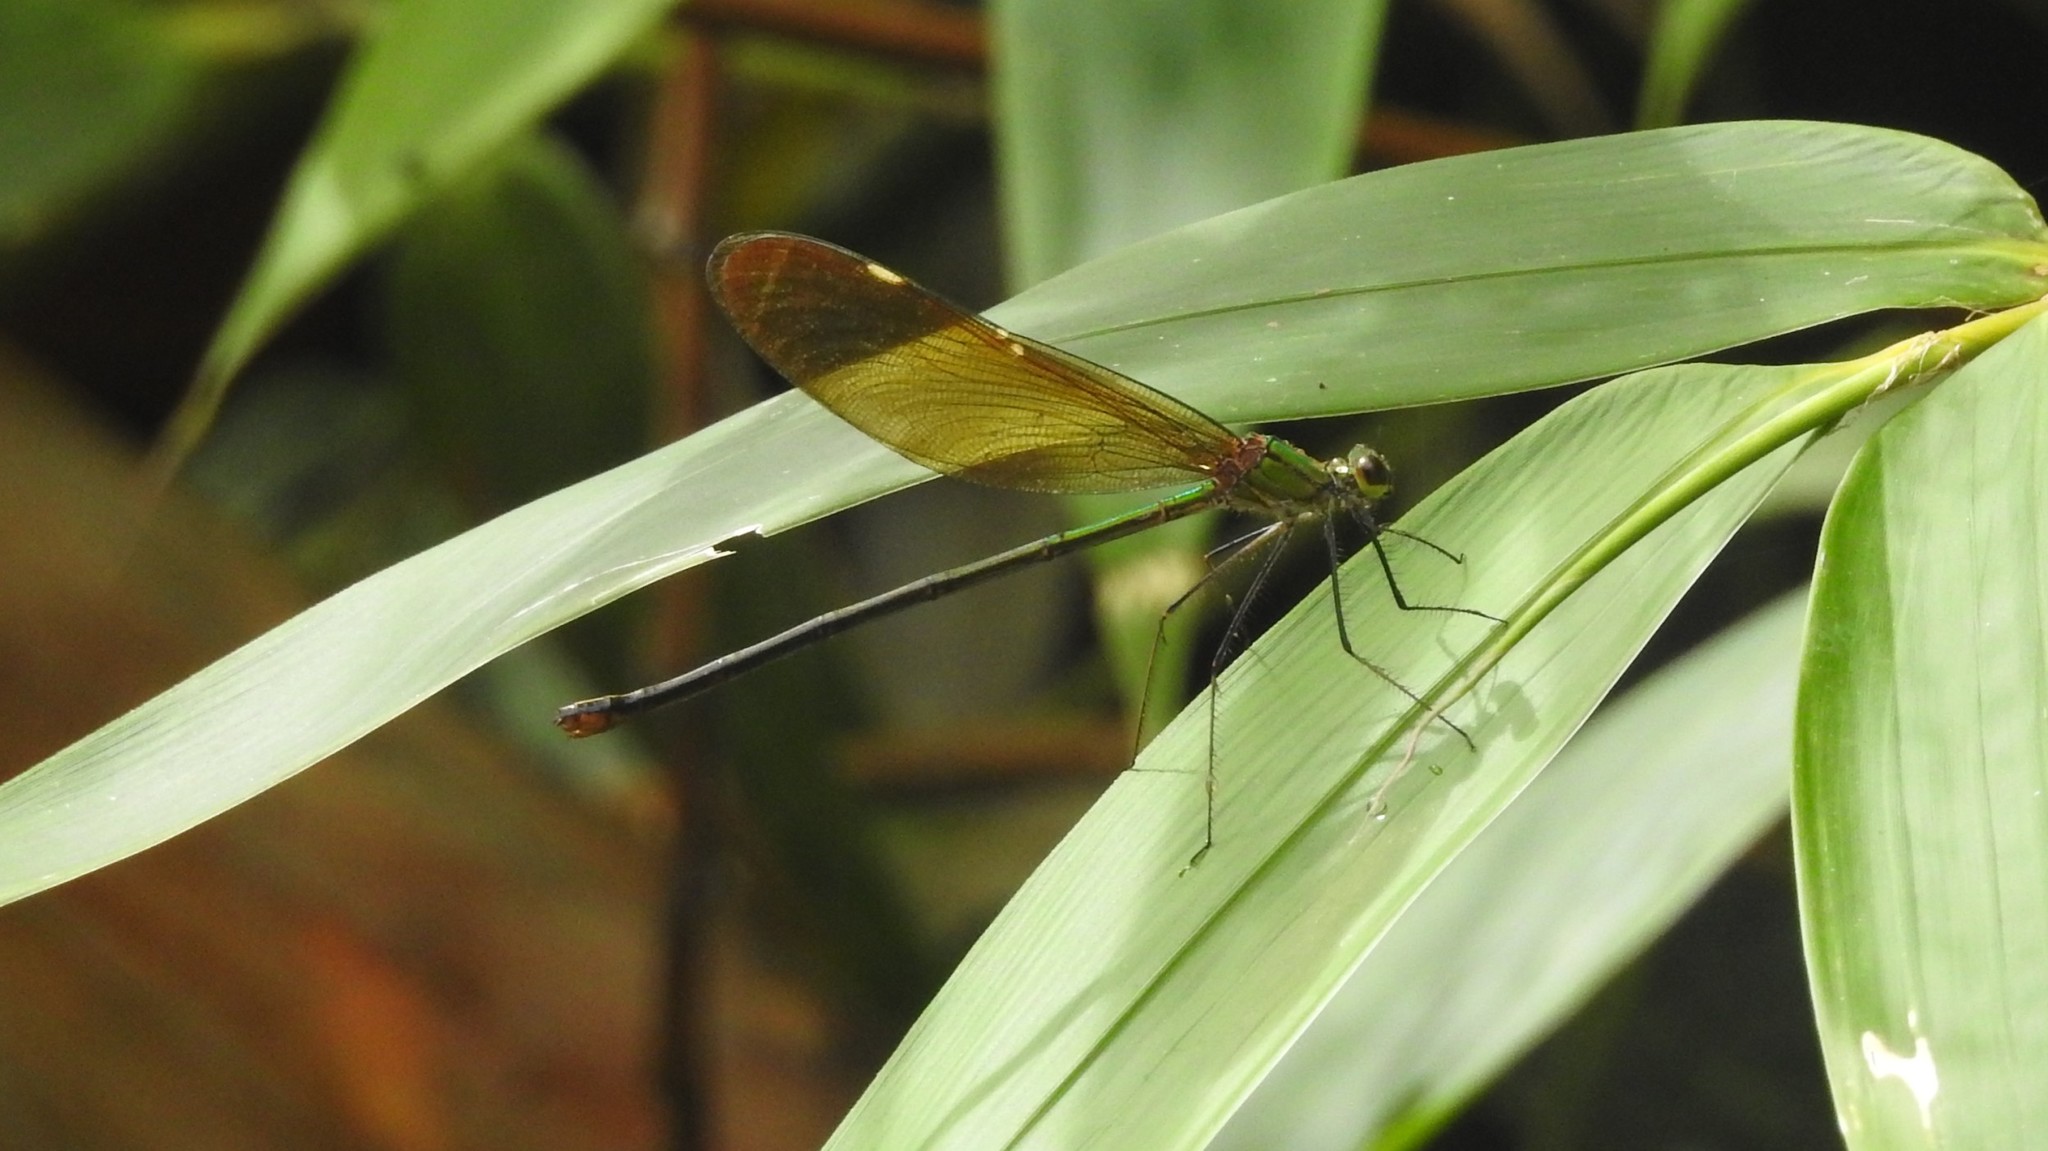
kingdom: Animalia
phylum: Arthropoda
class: Insecta
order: Odonata
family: Calopterygidae
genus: Neurobasis
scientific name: Neurobasis chinensis
